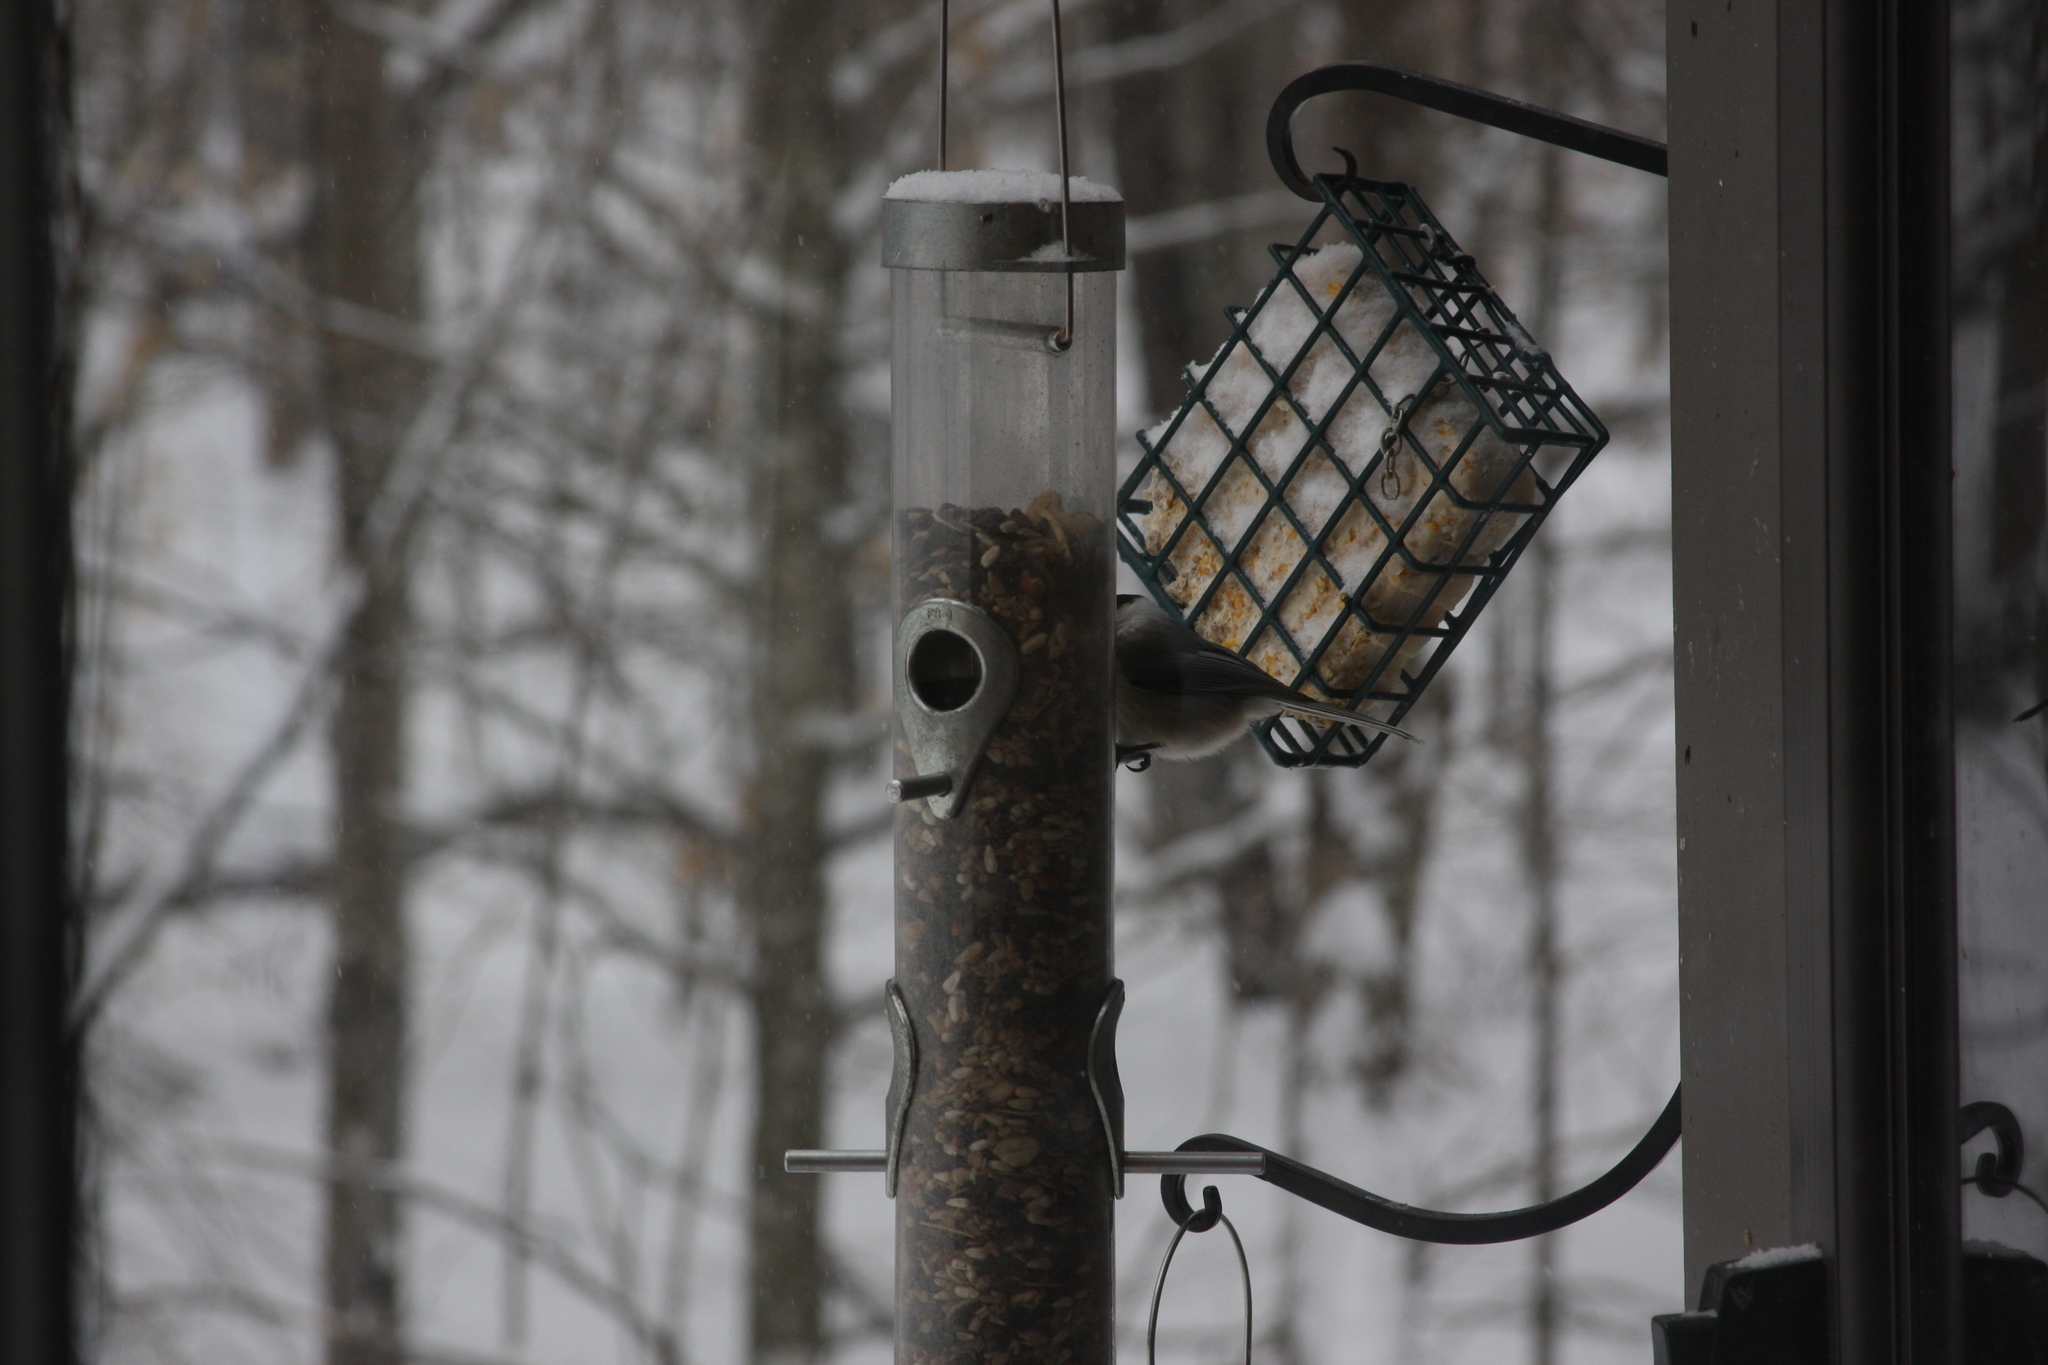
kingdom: Animalia
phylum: Chordata
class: Aves
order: Passeriformes
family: Paridae
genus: Poecile
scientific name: Poecile atricapillus
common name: Black-capped chickadee
